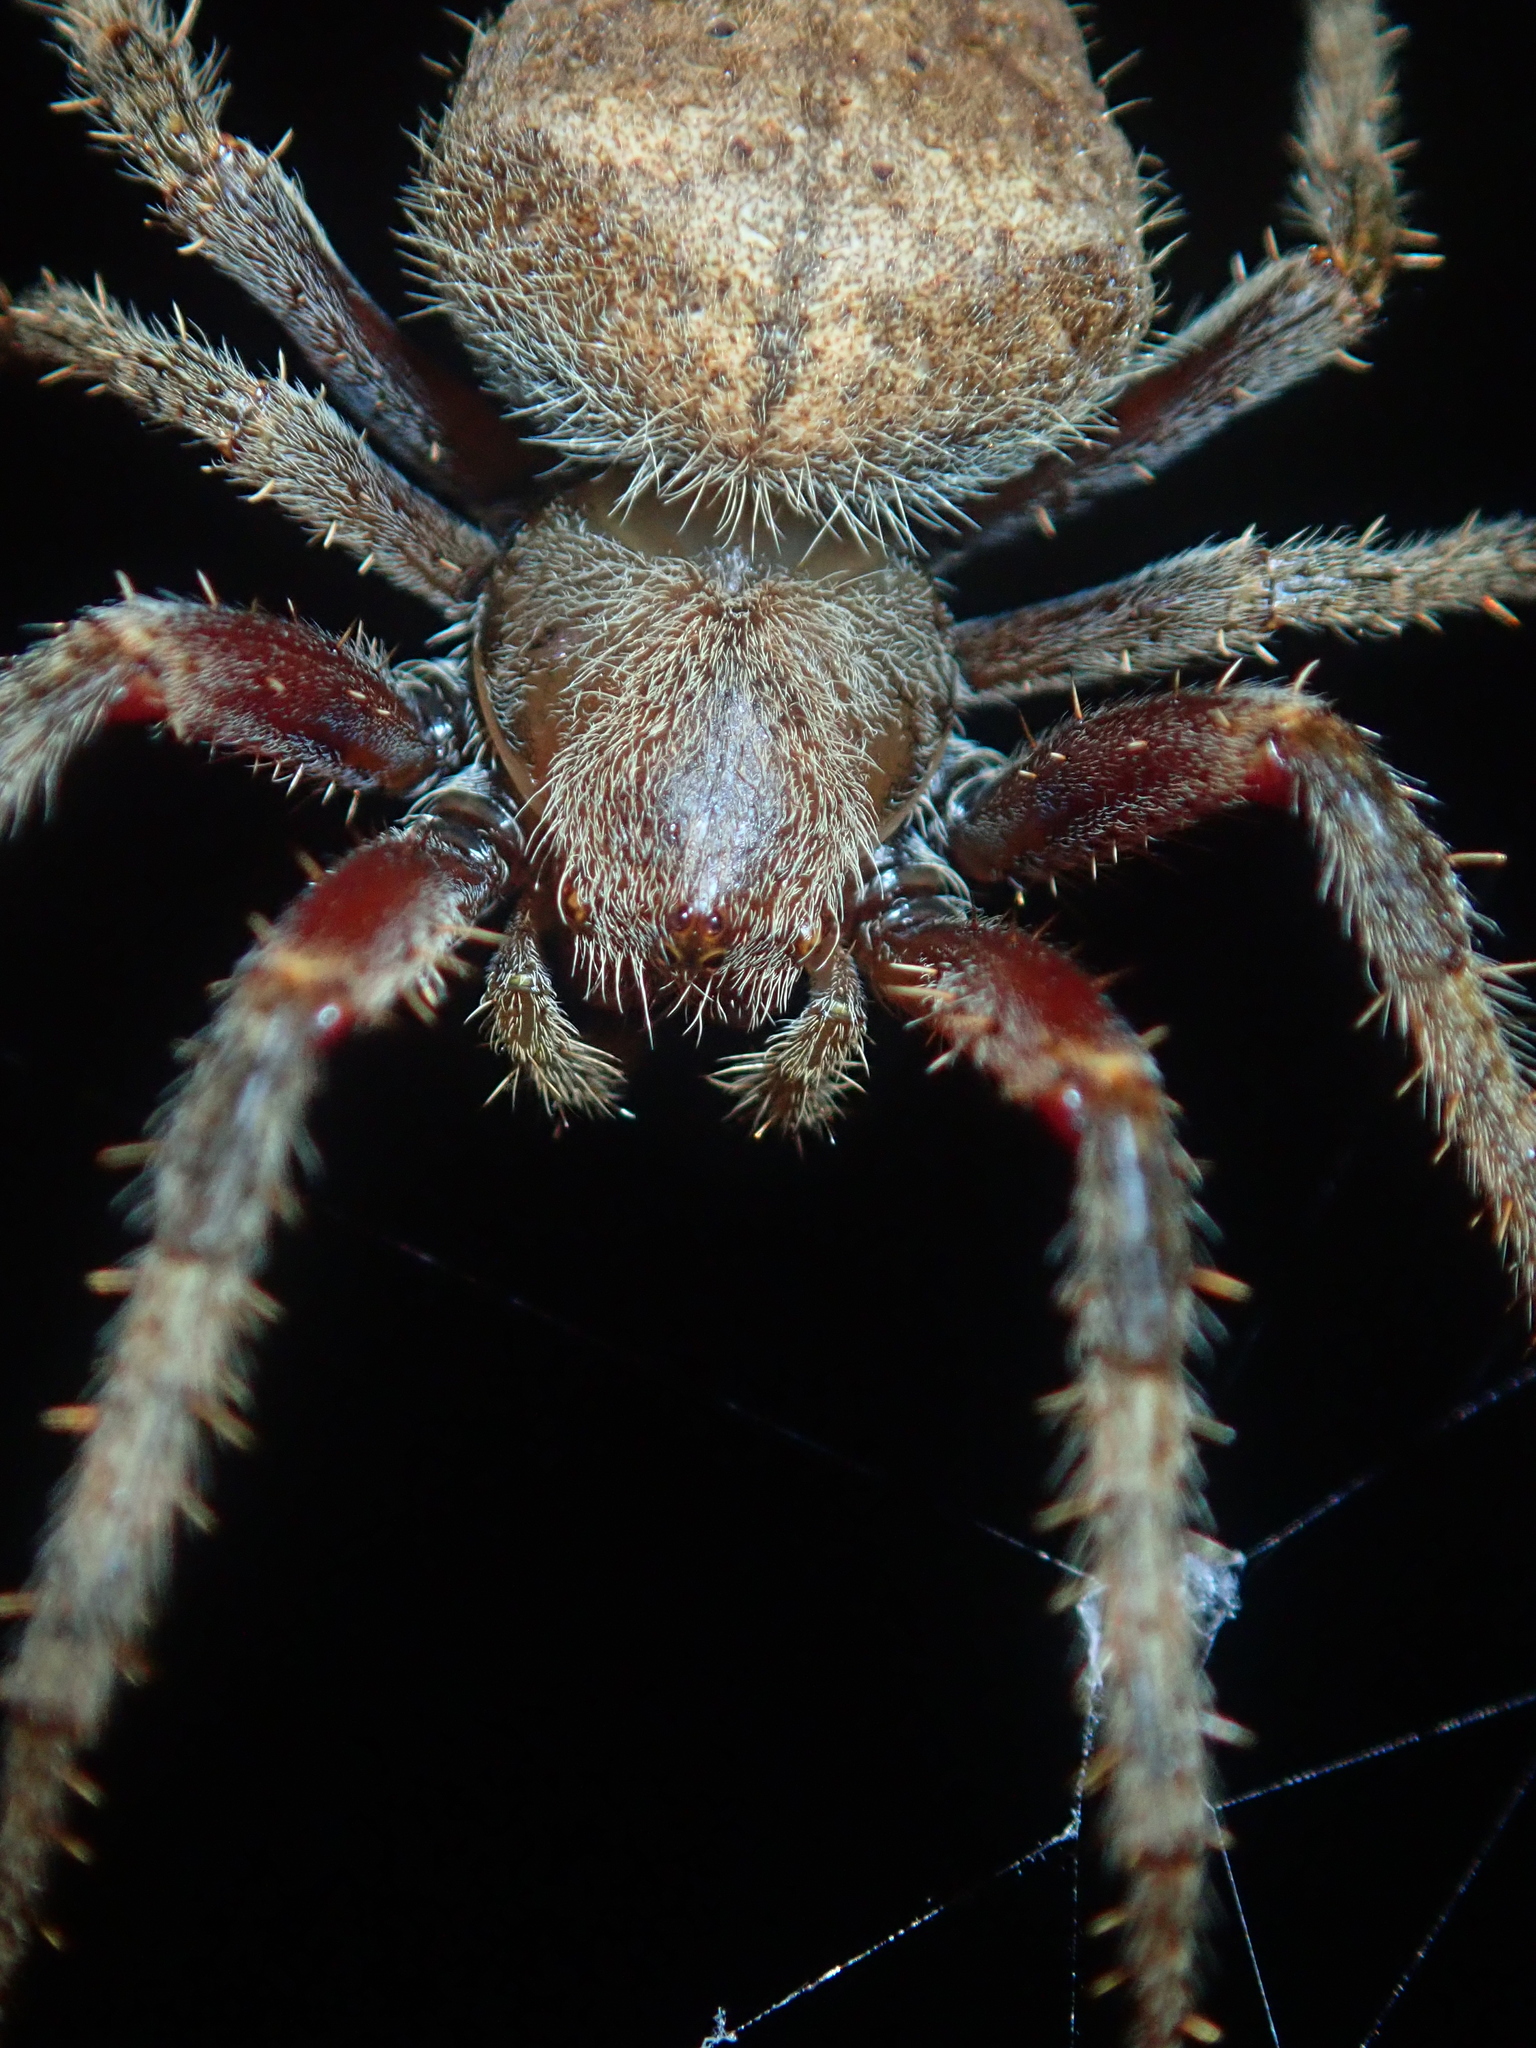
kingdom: Animalia
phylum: Arthropoda
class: Arachnida
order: Araneae
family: Araneidae
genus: Eriophora
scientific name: Eriophora edax
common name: Orb weavers
